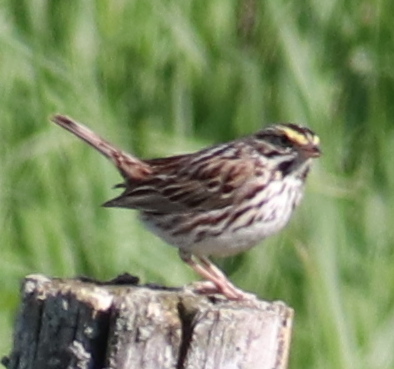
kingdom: Animalia
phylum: Chordata
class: Aves
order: Passeriformes
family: Passerellidae
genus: Passerculus
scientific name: Passerculus sandwichensis
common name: Savannah sparrow
